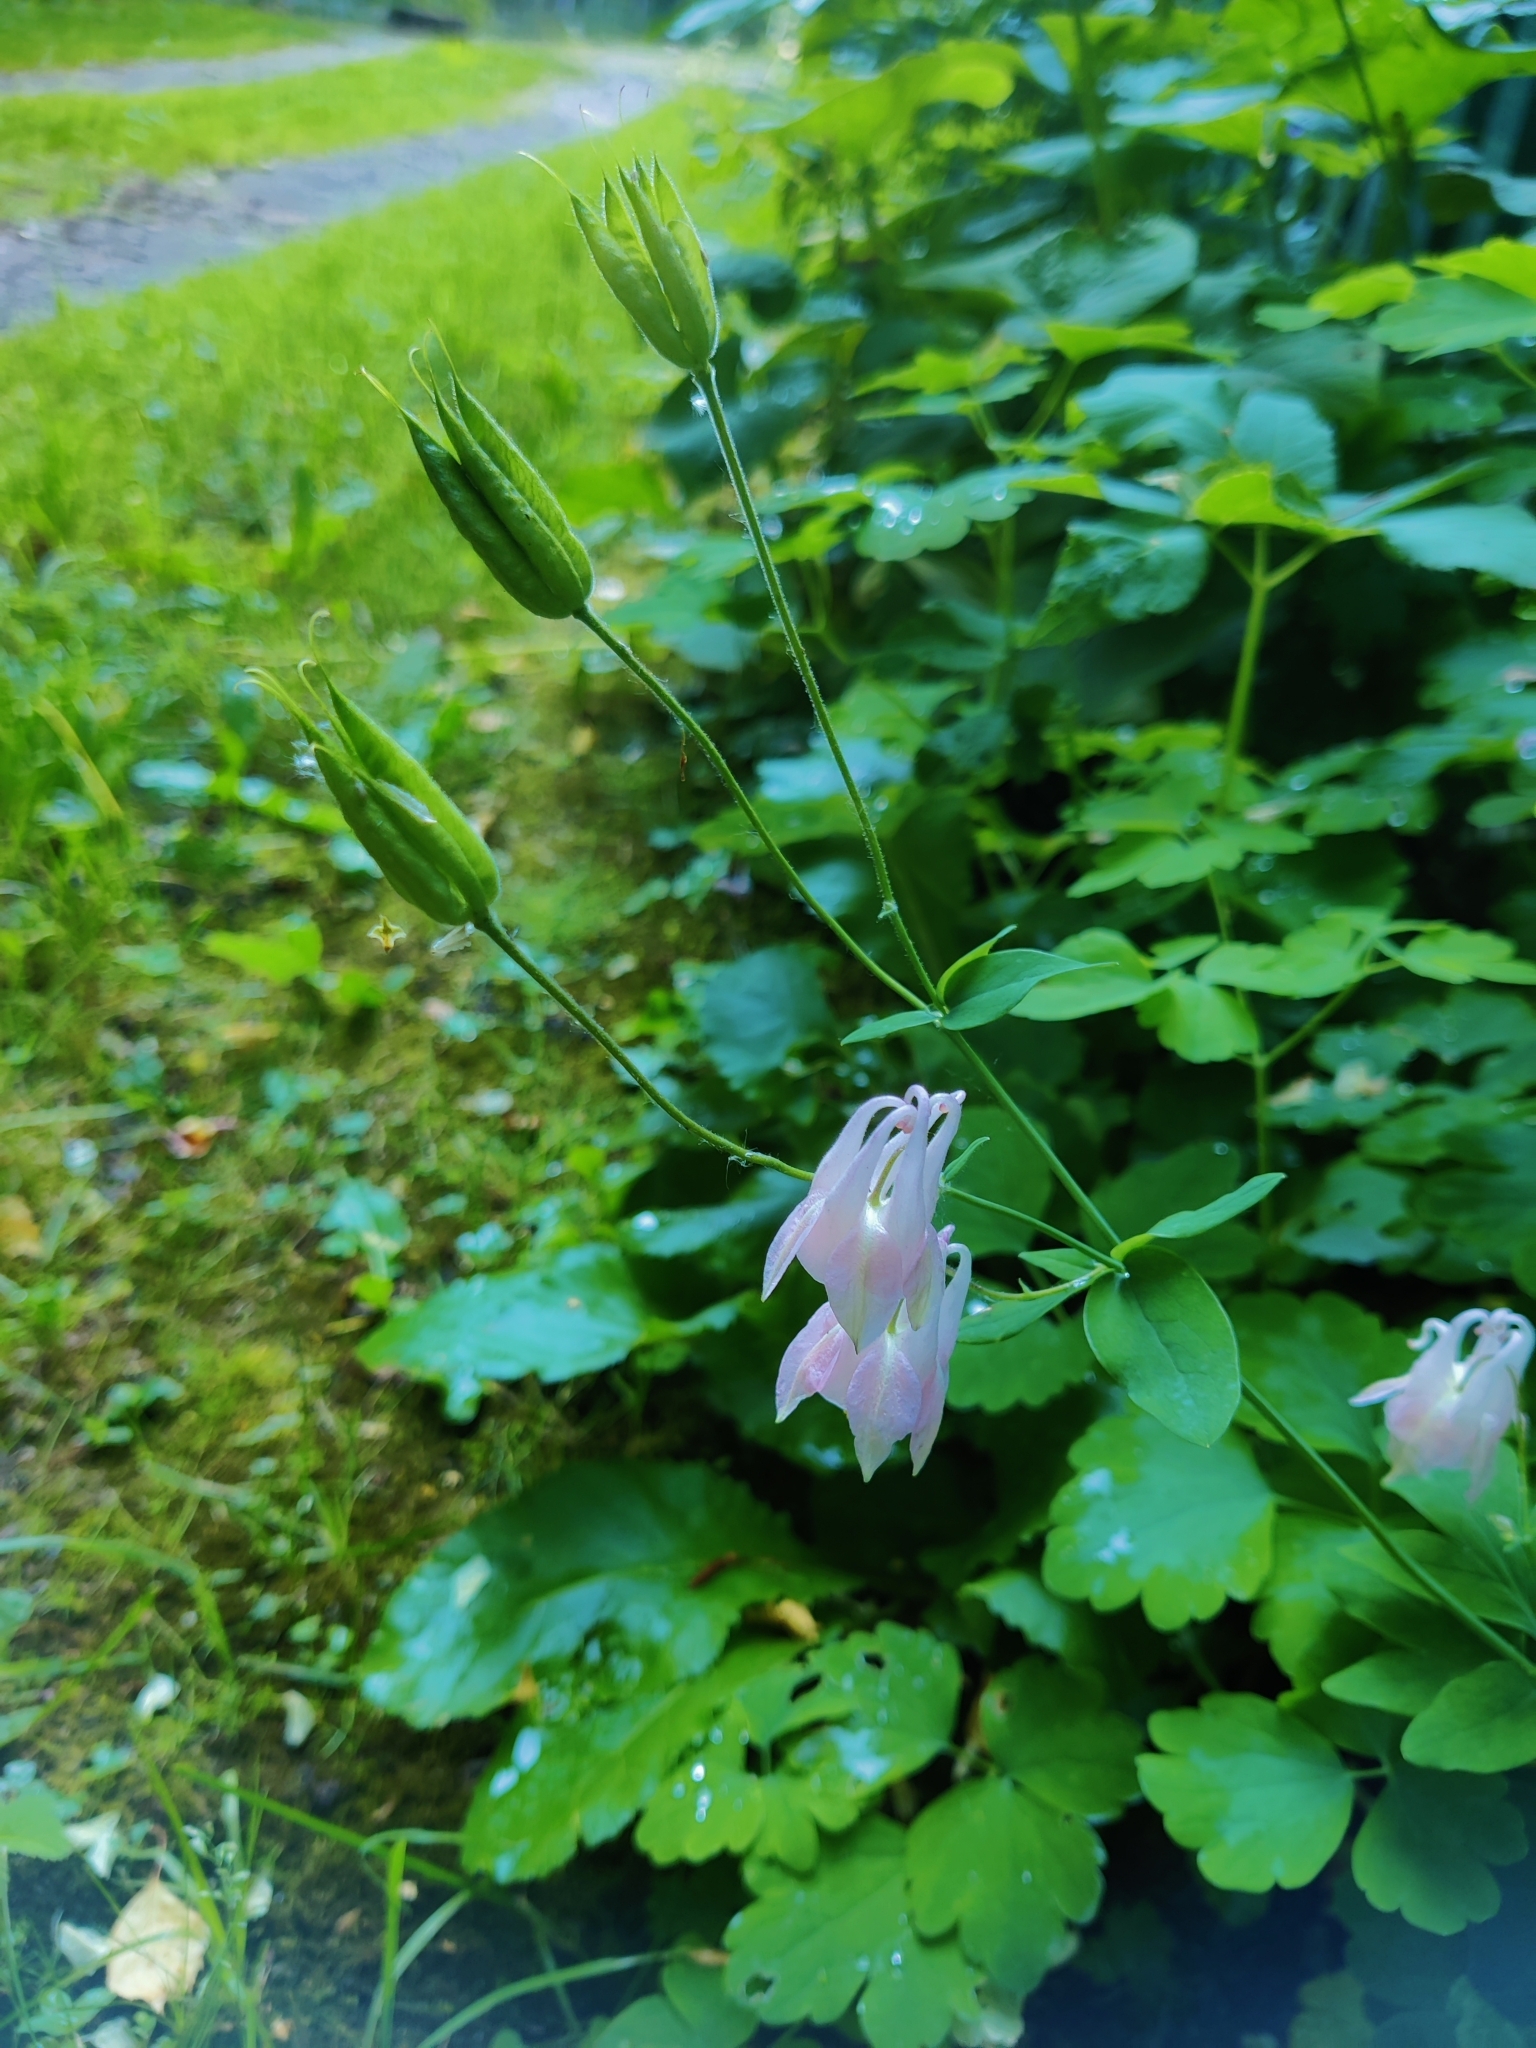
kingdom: Plantae
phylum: Tracheophyta
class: Magnoliopsida
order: Ranunculales
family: Ranunculaceae
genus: Aquilegia
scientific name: Aquilegia vulgaris
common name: Columbine
